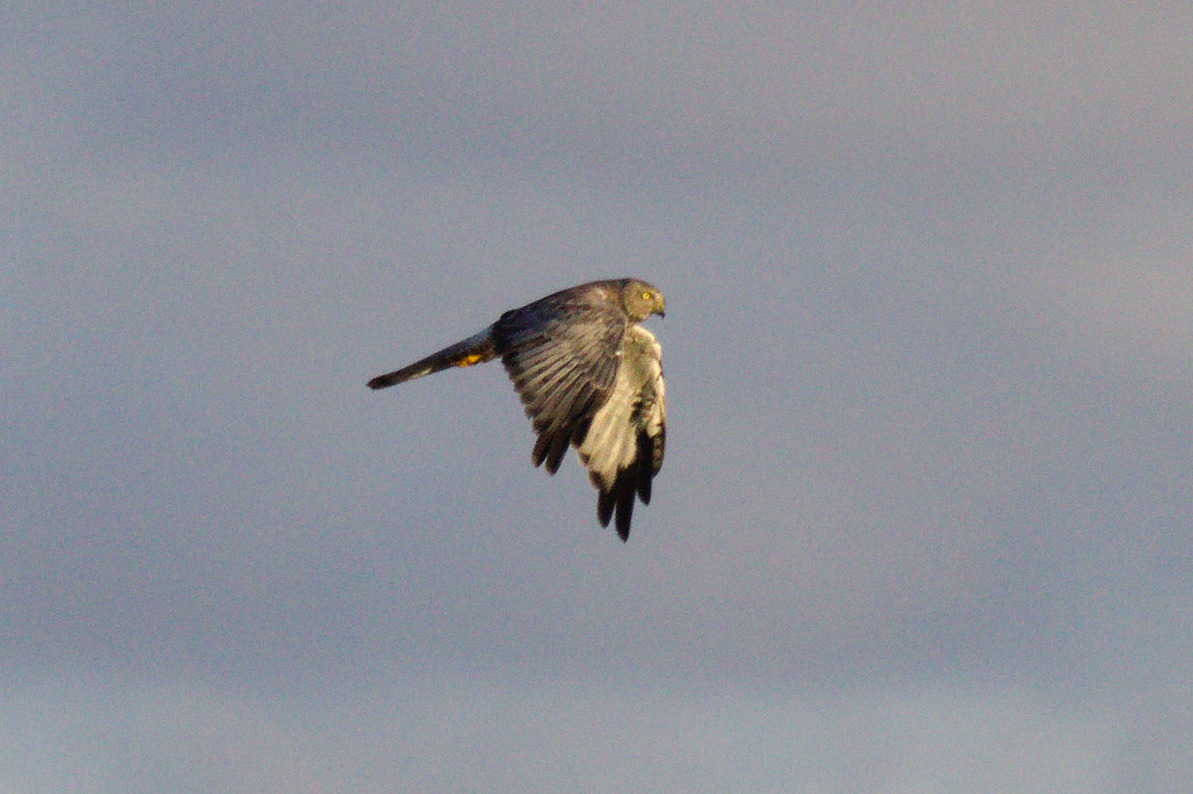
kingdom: Animalia
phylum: Chordata
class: Aves
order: Accipitriformes
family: Accipitridae
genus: Circus
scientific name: Circus cinereus
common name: Cinereous harrier
